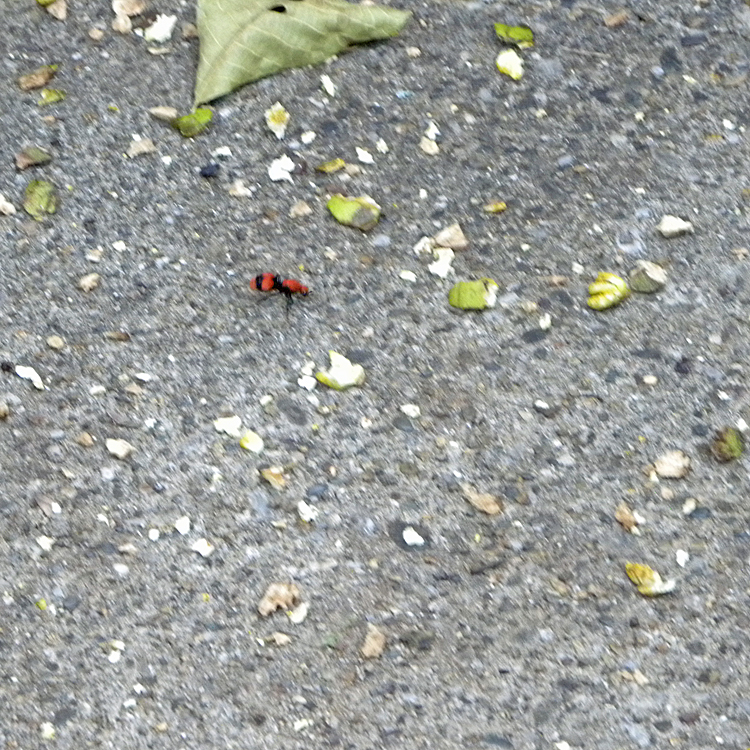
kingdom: Animalia
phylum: Arthropoda
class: Insecta
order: Hymenoptera
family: Mutillidae
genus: Dasymutilla
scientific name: Dasymutilla occidentalis
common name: Common eastern velvet ant
